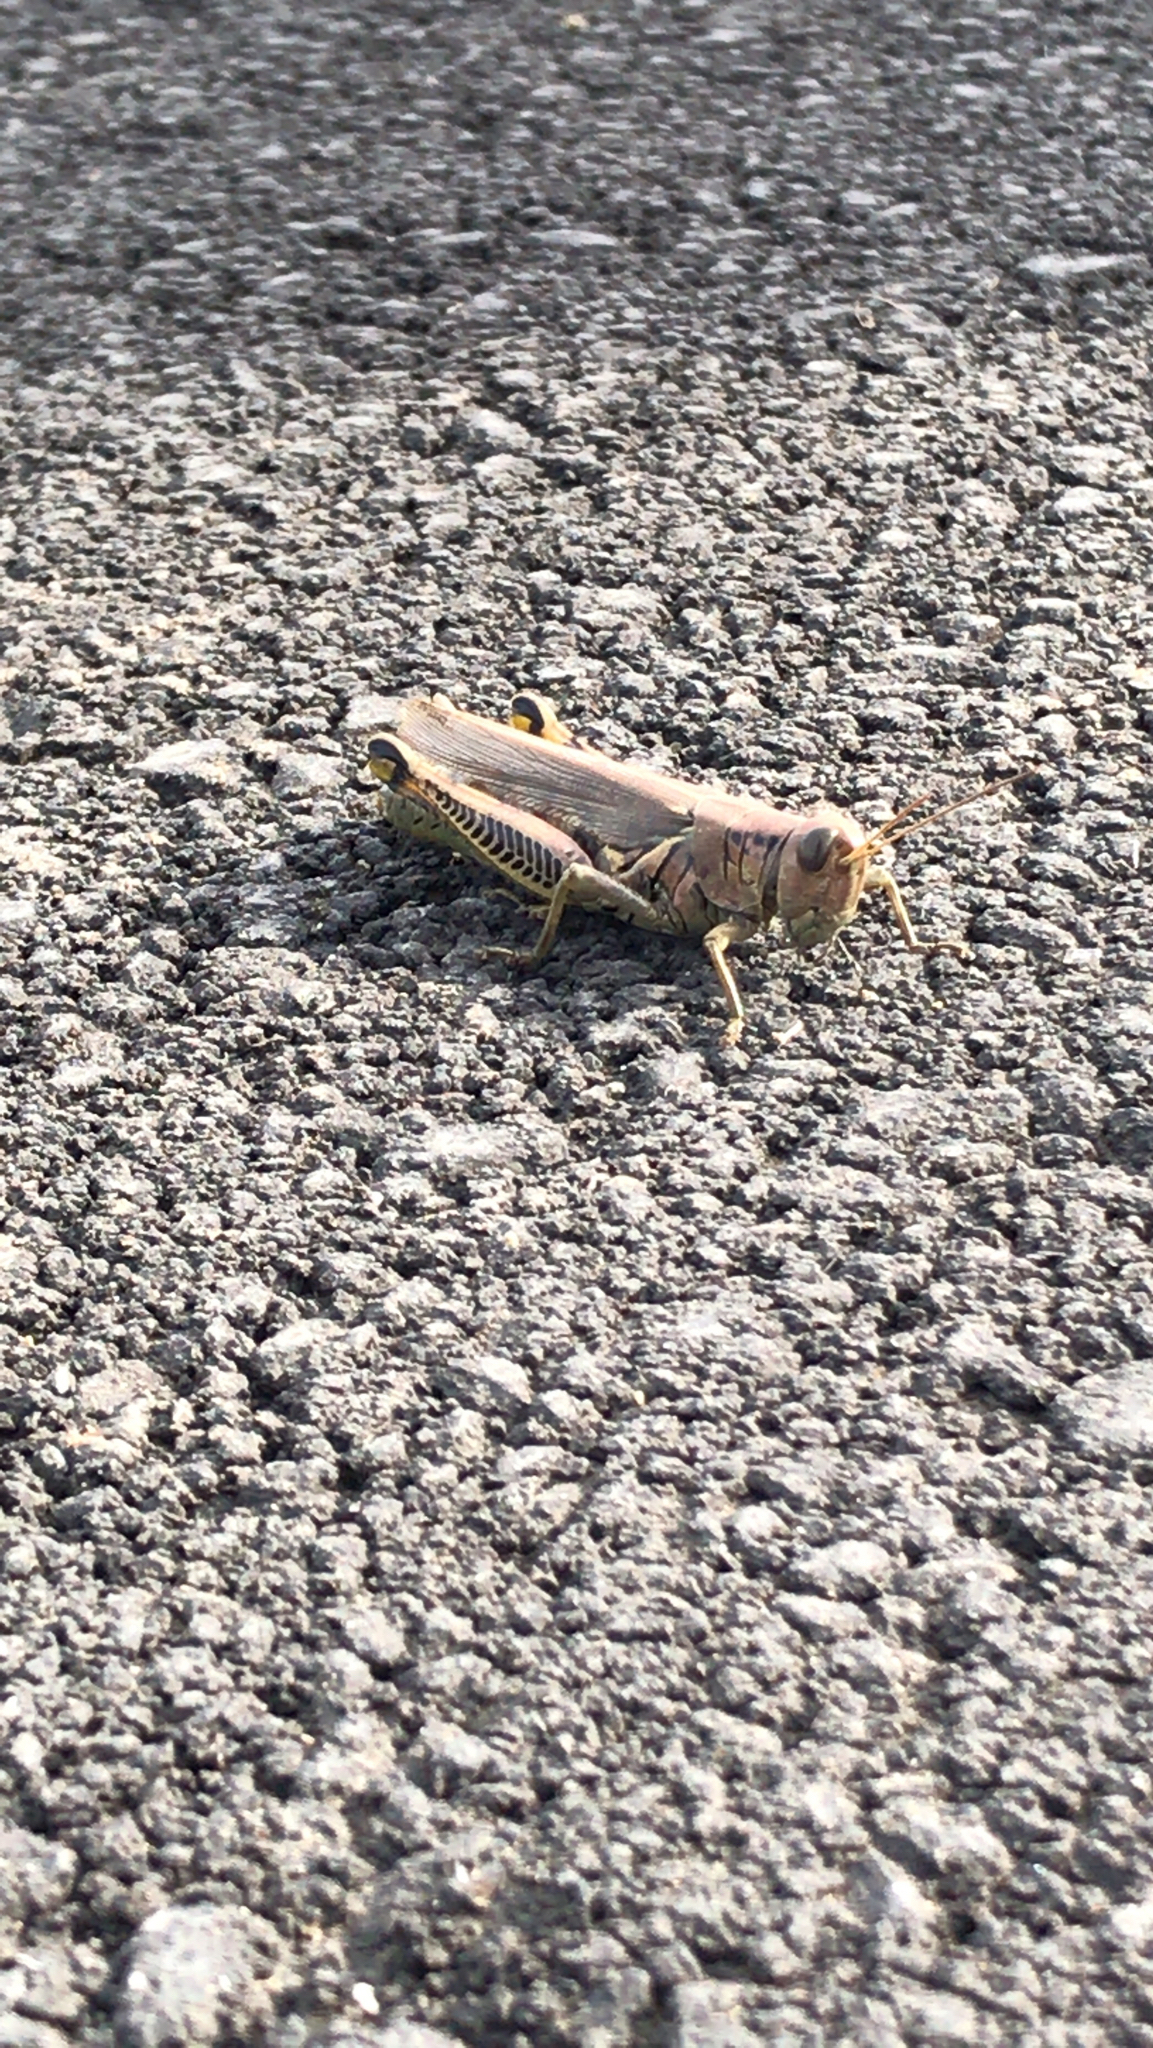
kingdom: Animalia
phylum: Arthropoda
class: Insecta
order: Orthoptera
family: Acrididae
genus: Melanoplus
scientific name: Melanoplus differentialis
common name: Differential grasshopper
